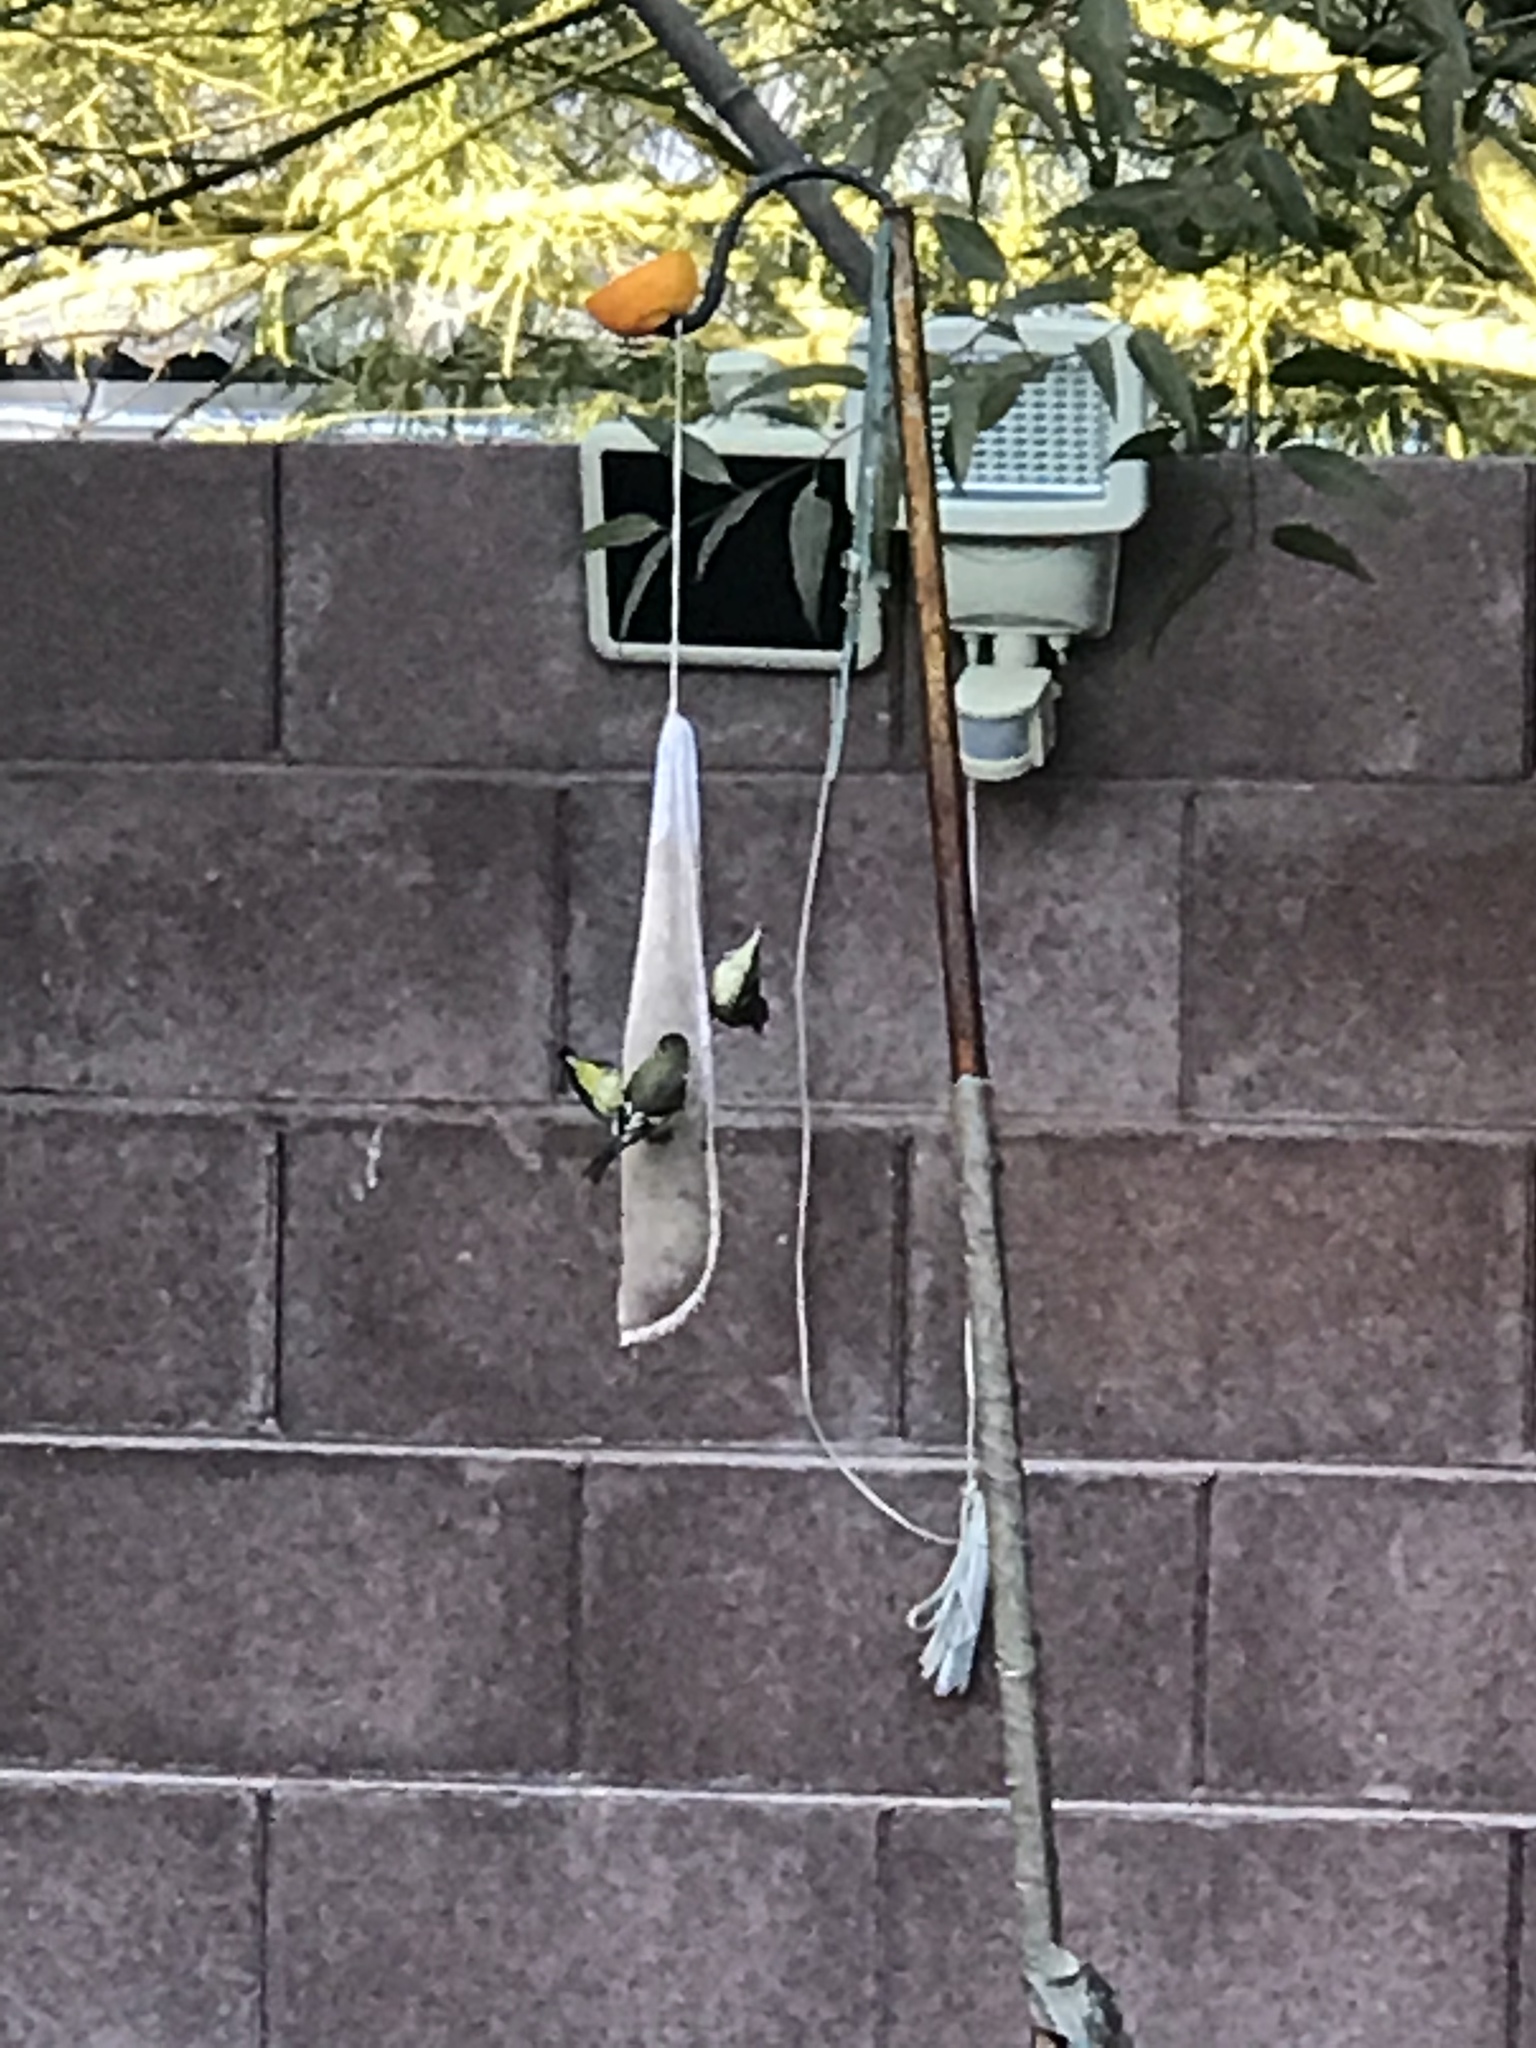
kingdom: Animalia
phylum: Chordata
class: Aves
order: Passeriformes
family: Fringillidae
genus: Spinus
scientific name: Spinus psaltria
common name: Lesser goldfinch
